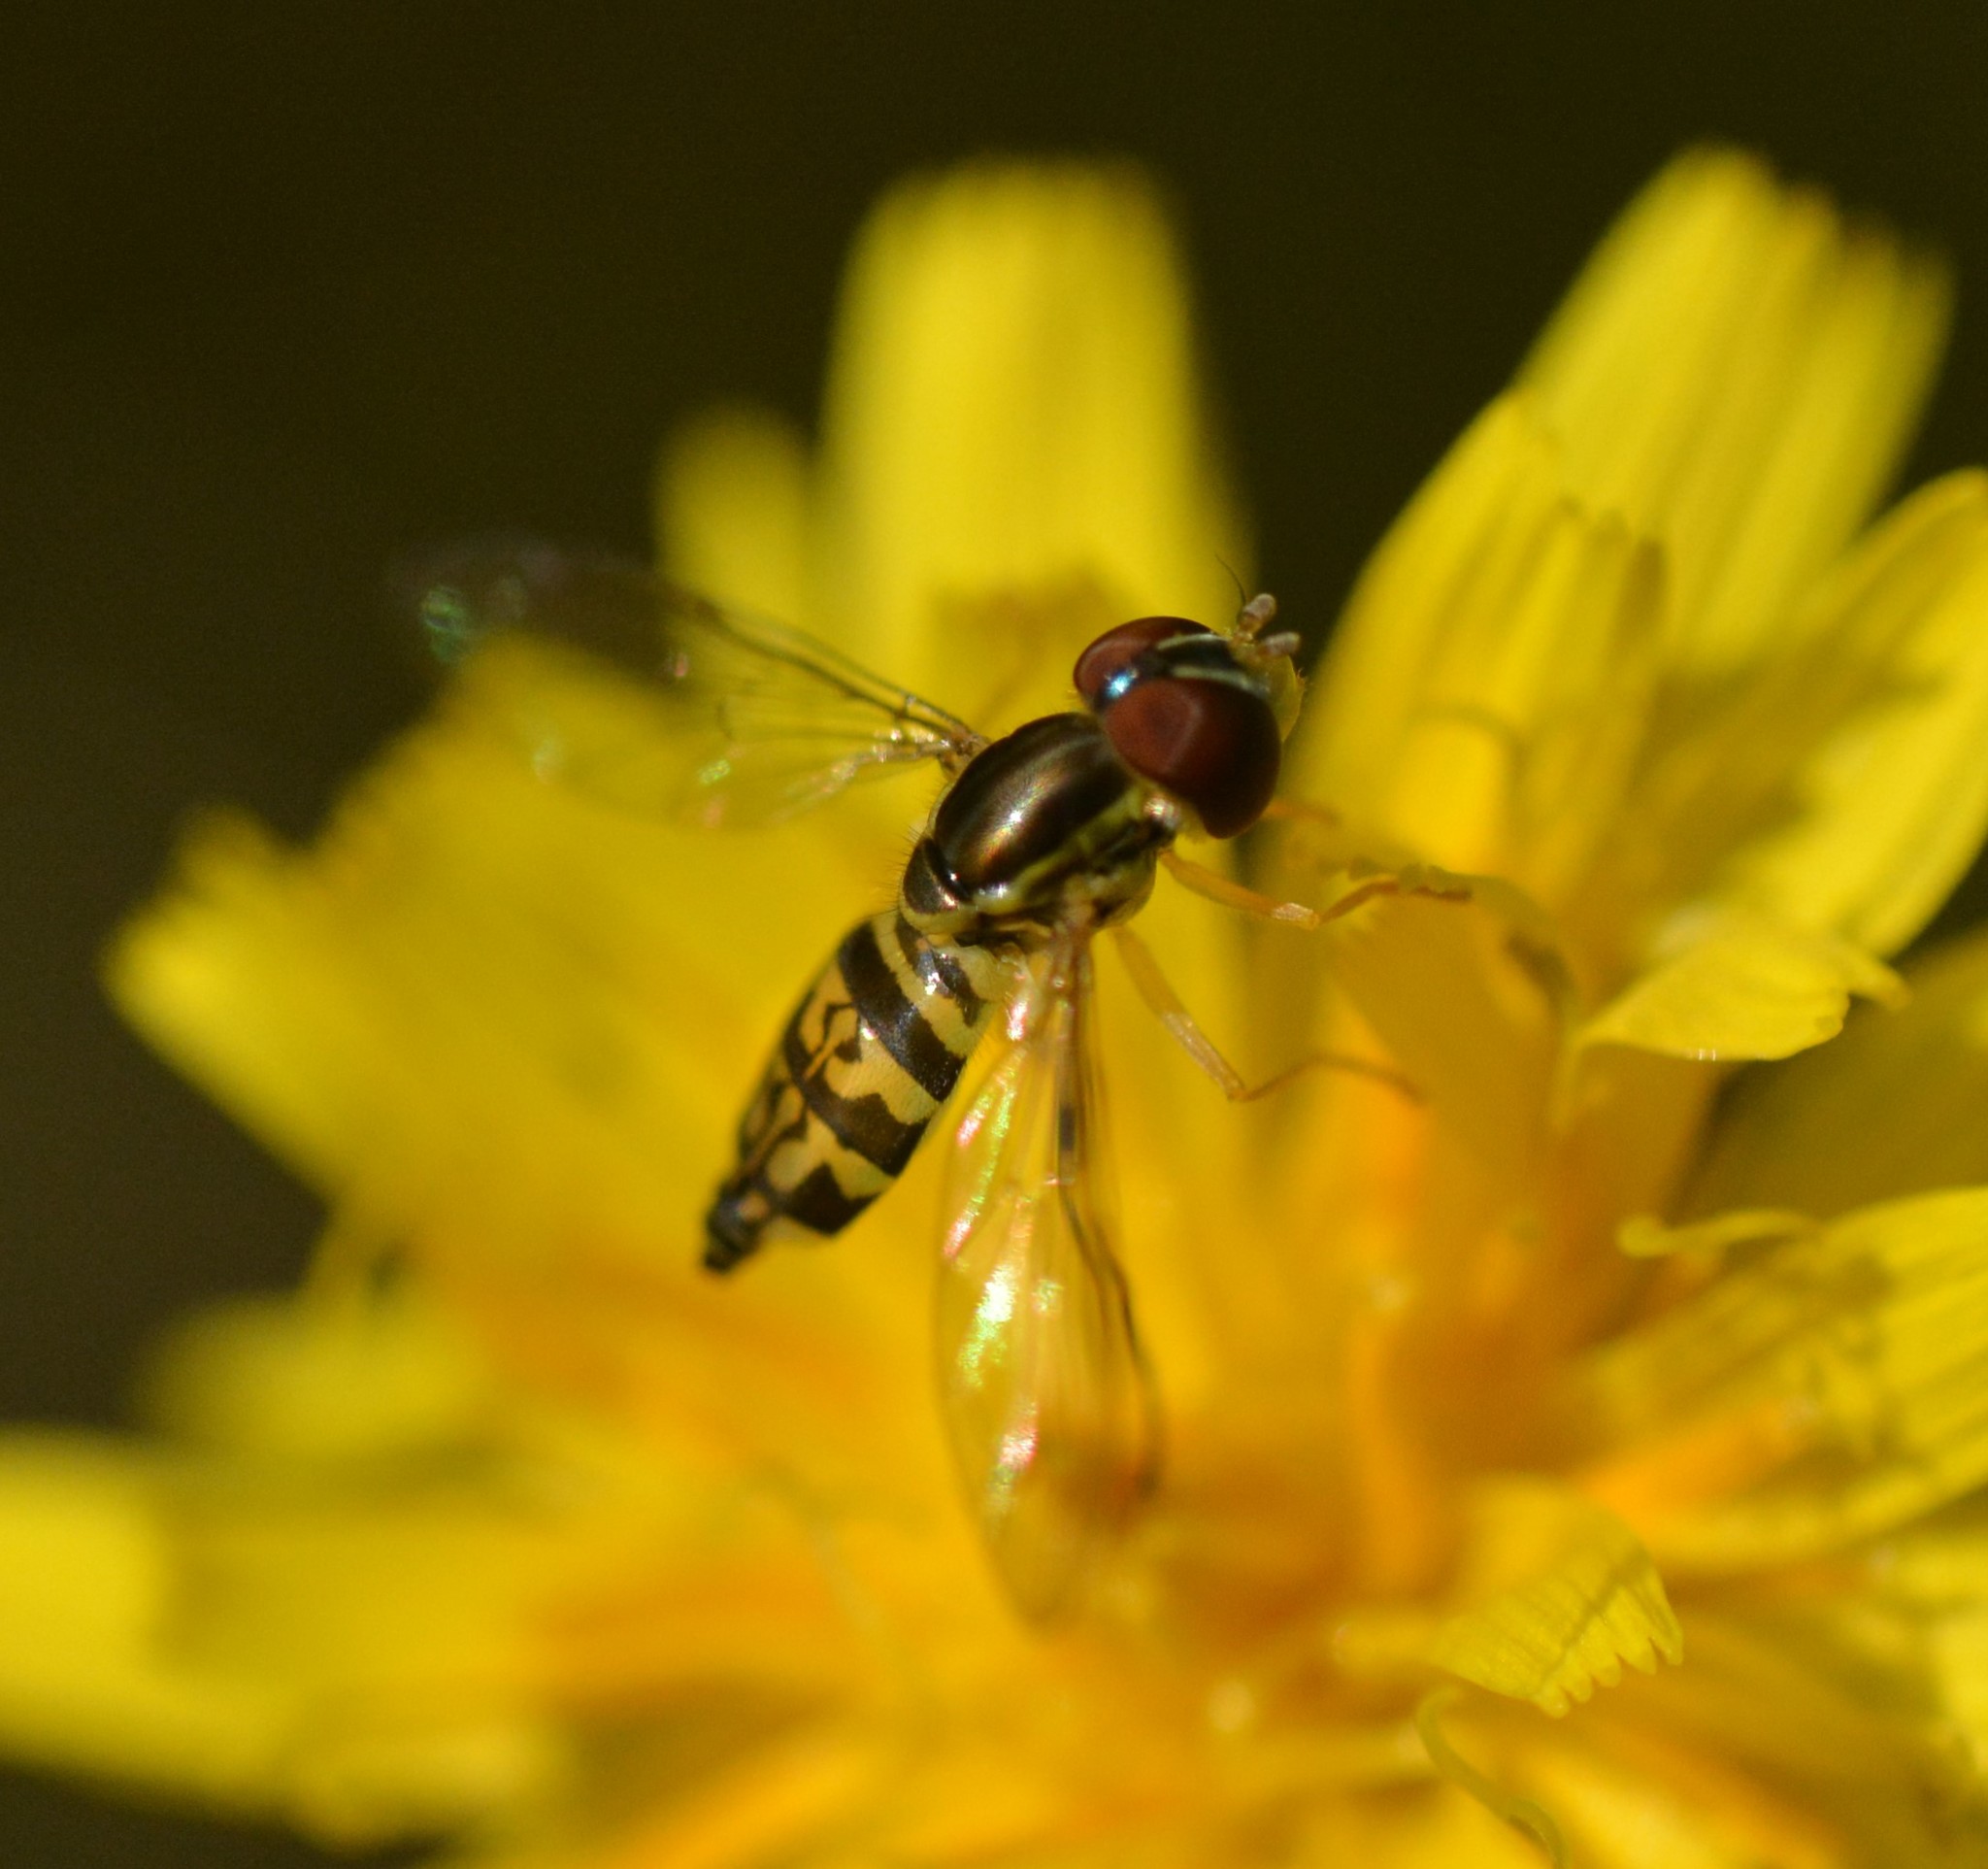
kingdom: Animalia
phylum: Arthropoda
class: Insecta
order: Diptera
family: Syrphidae
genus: Toxomerus
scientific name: Toxomerus geminatus
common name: Eastern calligrapher
